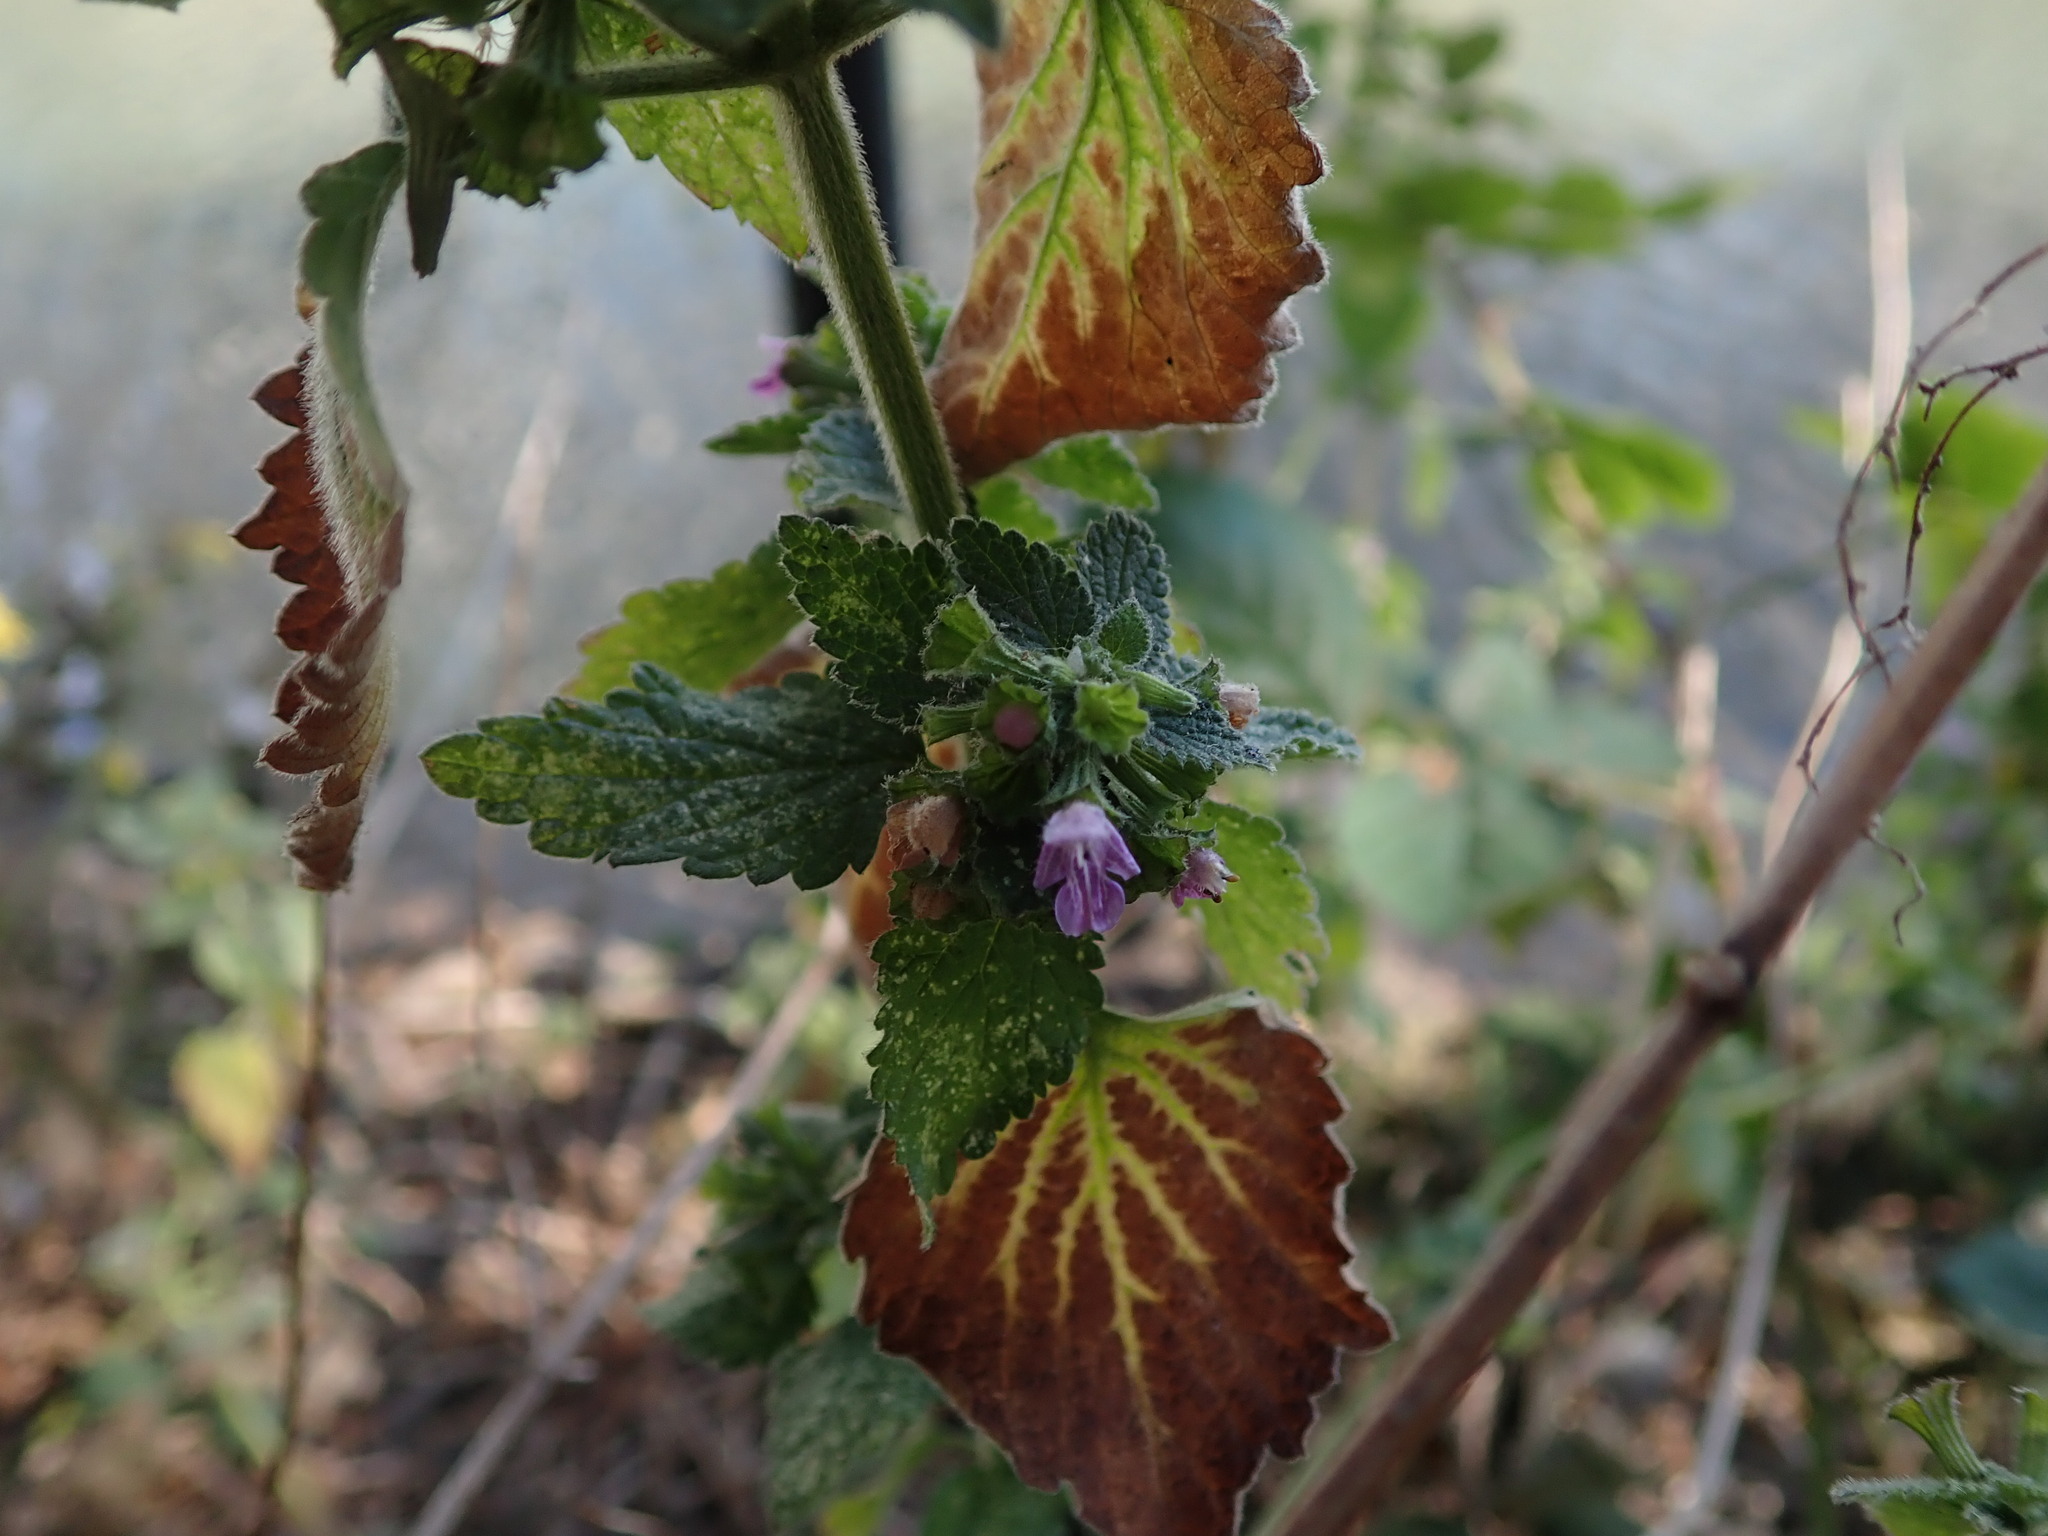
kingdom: Plantae
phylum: Tracheophyta
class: Magnoliopsida
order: Lamiales
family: Lamiaceae
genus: Ballota
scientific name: Ballota nigra
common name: Black horehound
